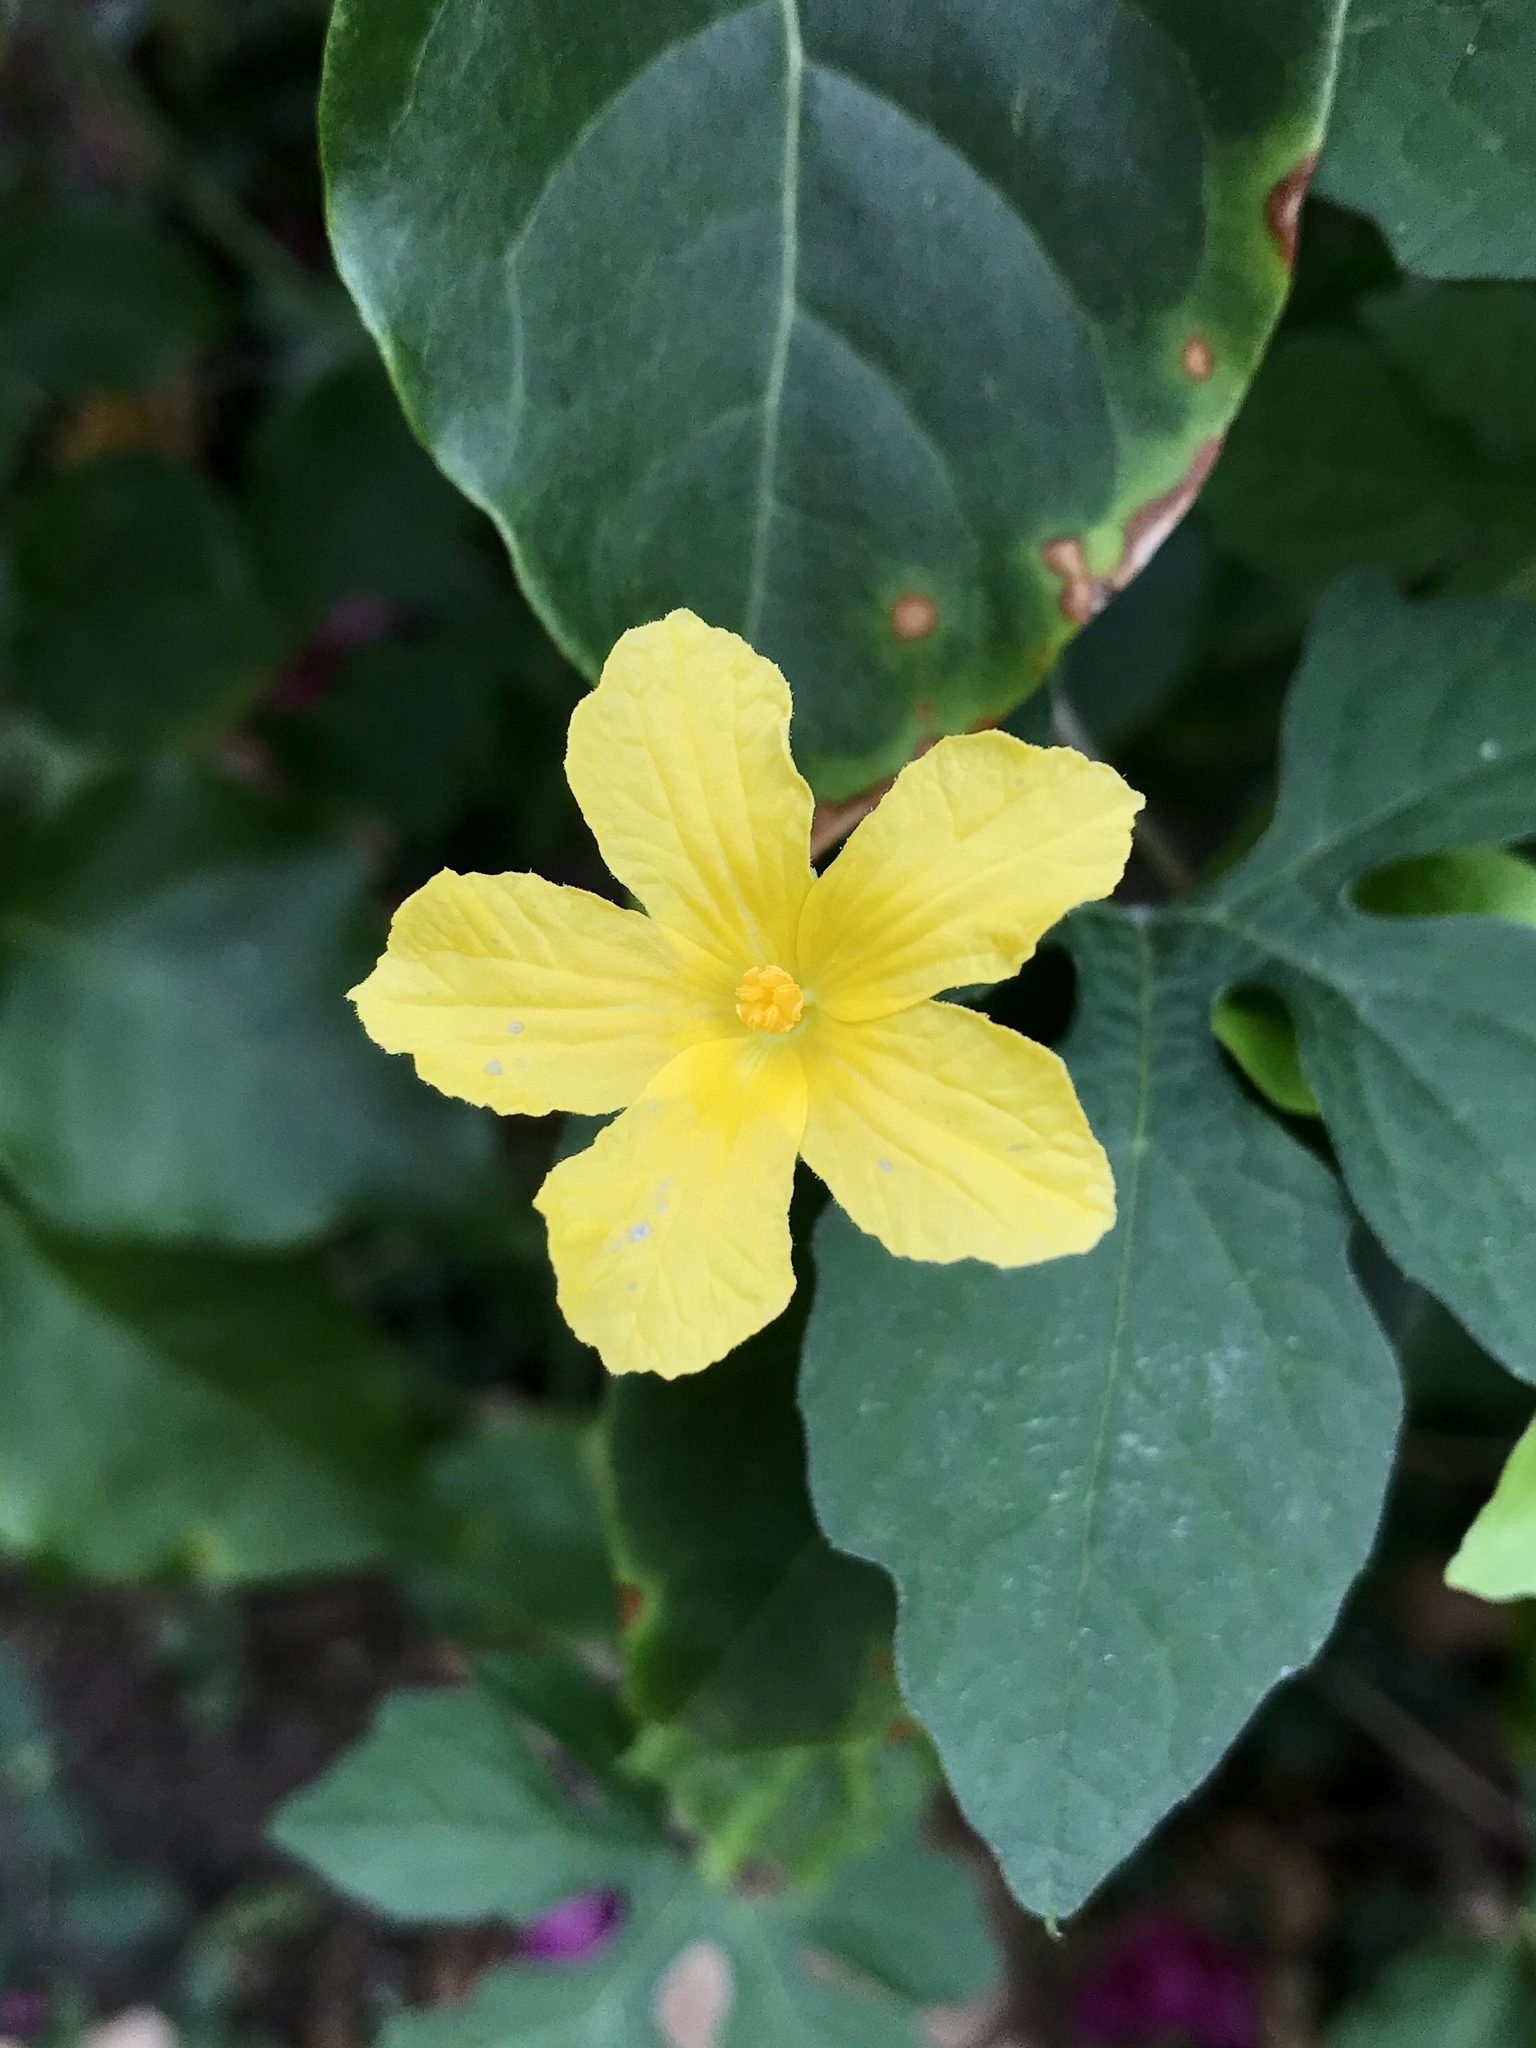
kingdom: Plantae
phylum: Tracheophyta
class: Magnoliopsida
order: Cucurbitales
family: Cucurbitaceae
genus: Momordica
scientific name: Momordica charantia
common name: Balsampear
